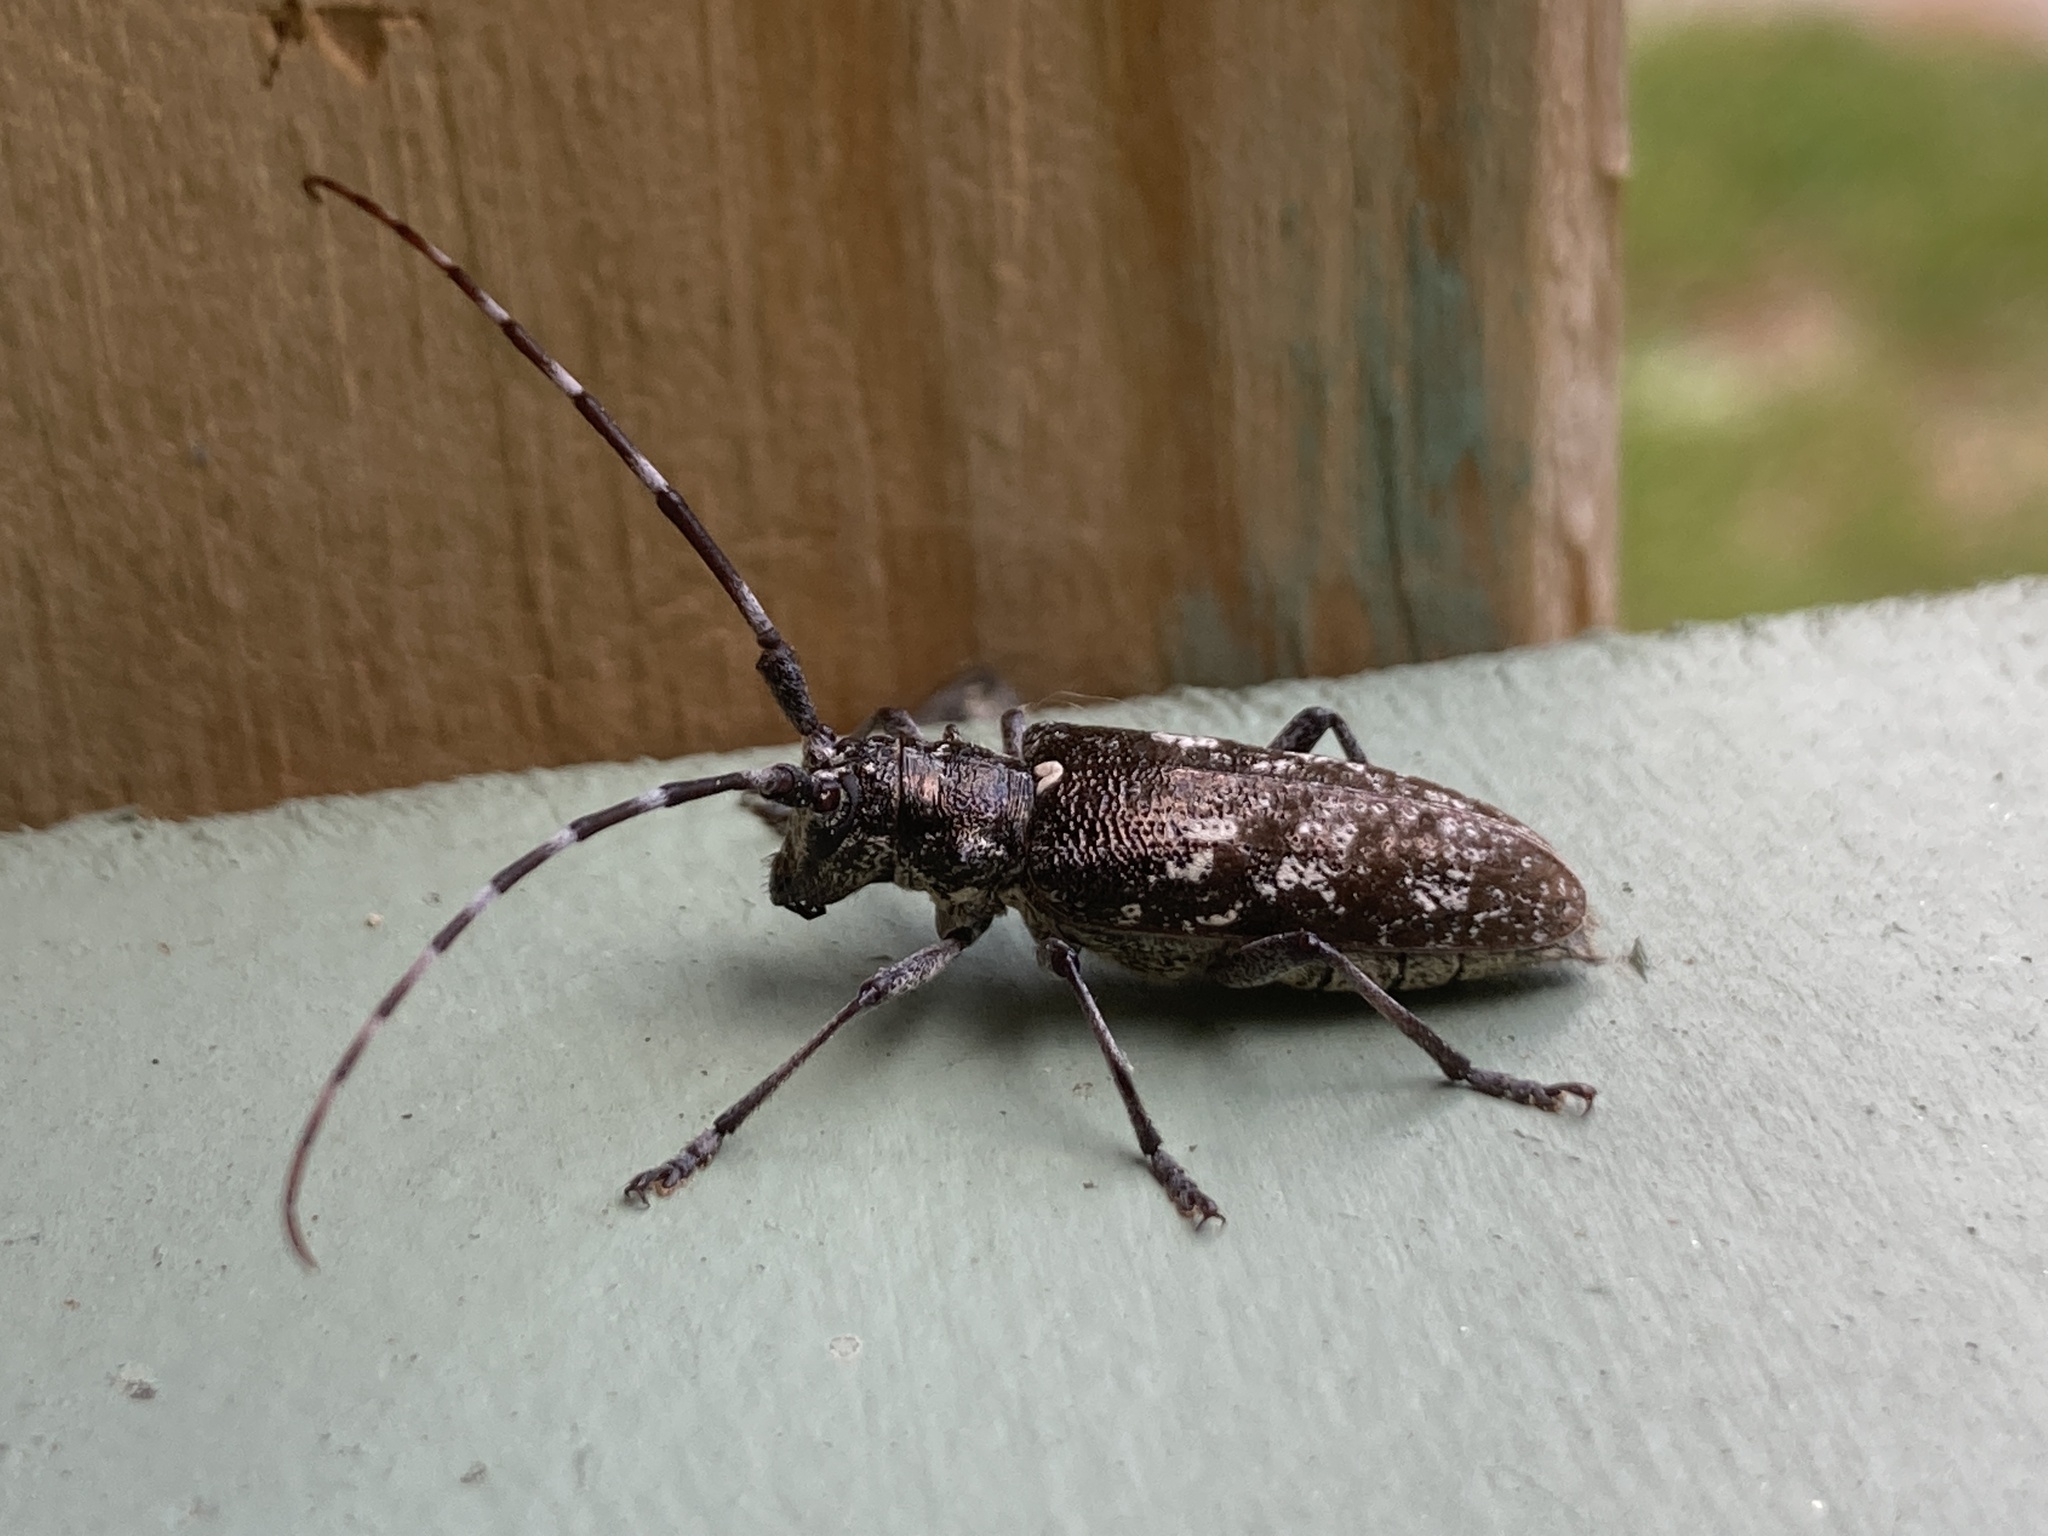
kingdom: Animalia
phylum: Arthropoda
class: Insecta
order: Coleoptera
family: Cerambycidae
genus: Monochamus
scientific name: Monochamus scutellatus
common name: White-spotted sawyer beetle
